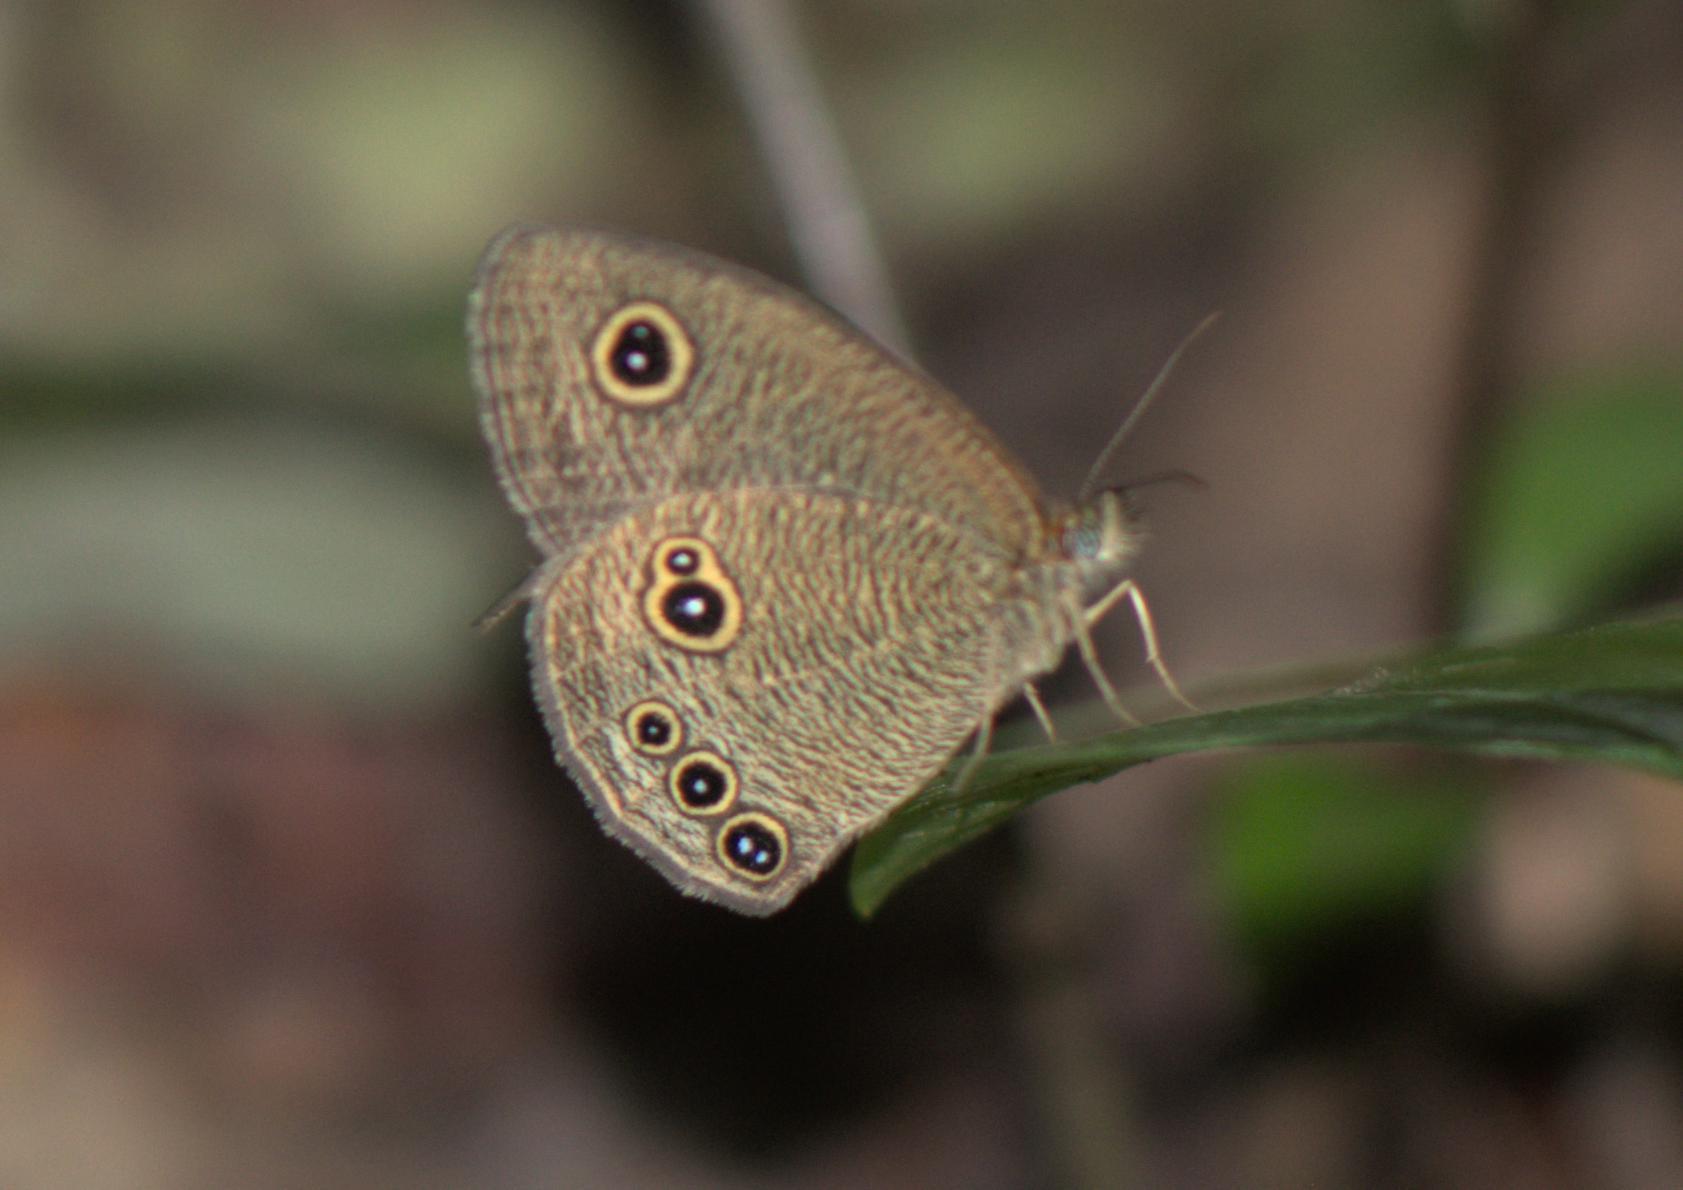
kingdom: Animalia
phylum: Arthropoda
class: Insecta
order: Lepidoptera
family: Nymphalidae
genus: Ypthima
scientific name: Ypthima nikaea
